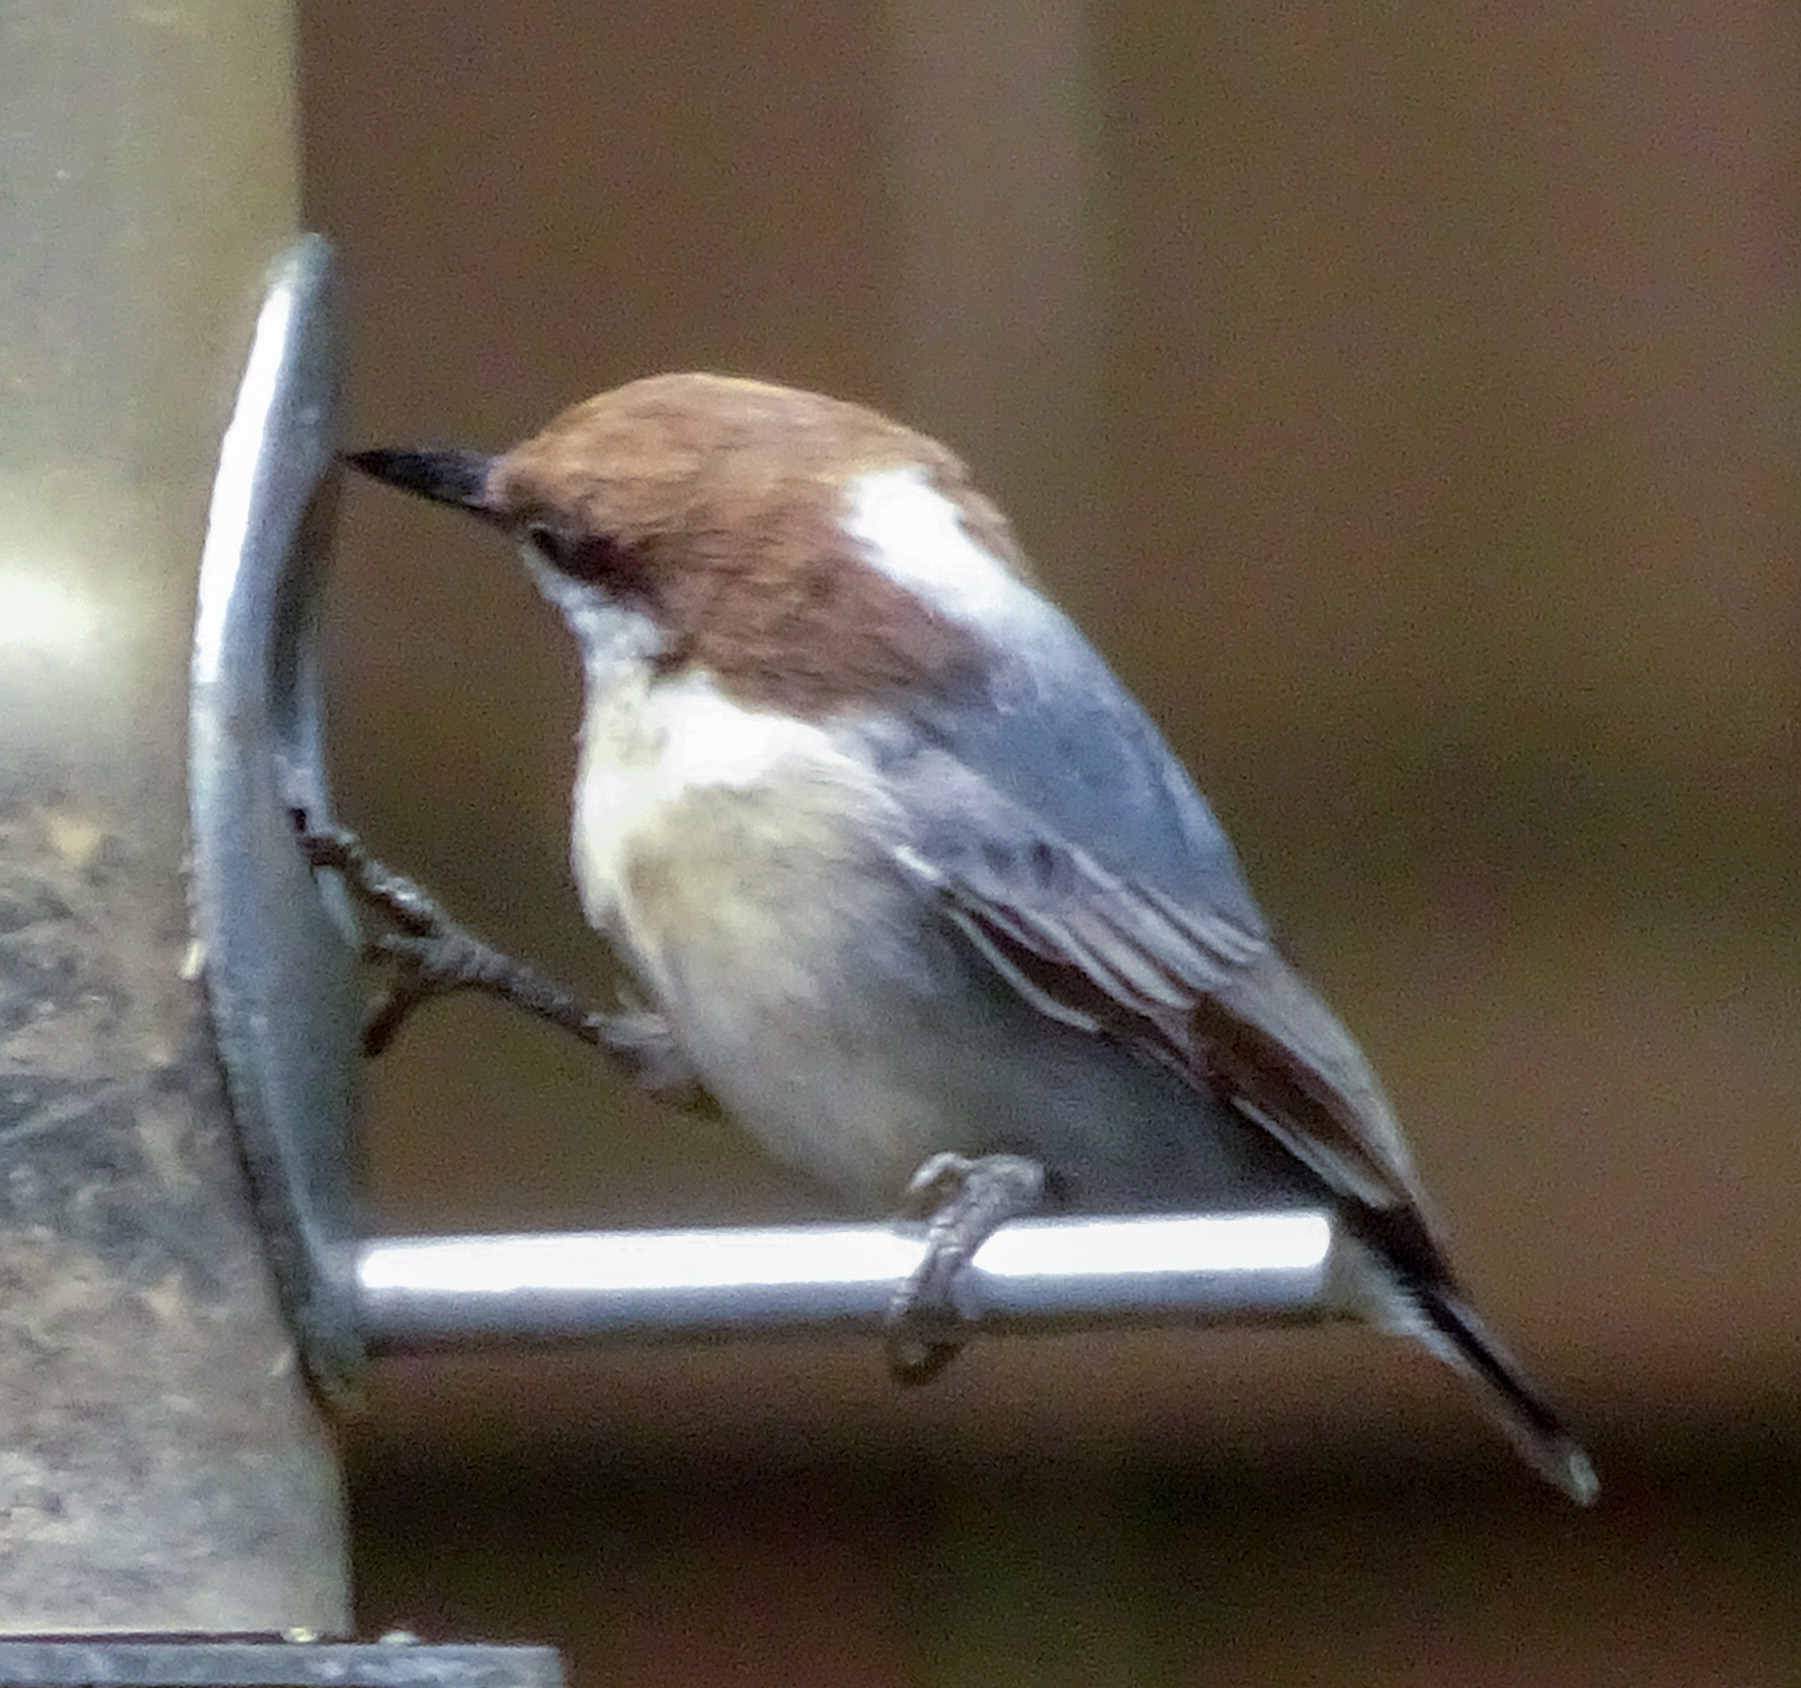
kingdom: Animalia
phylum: Chordata
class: Aves
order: Passeriformes
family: Sittidae
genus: Sitta
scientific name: Sitta pusilla
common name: Brown-headed nuthatch
